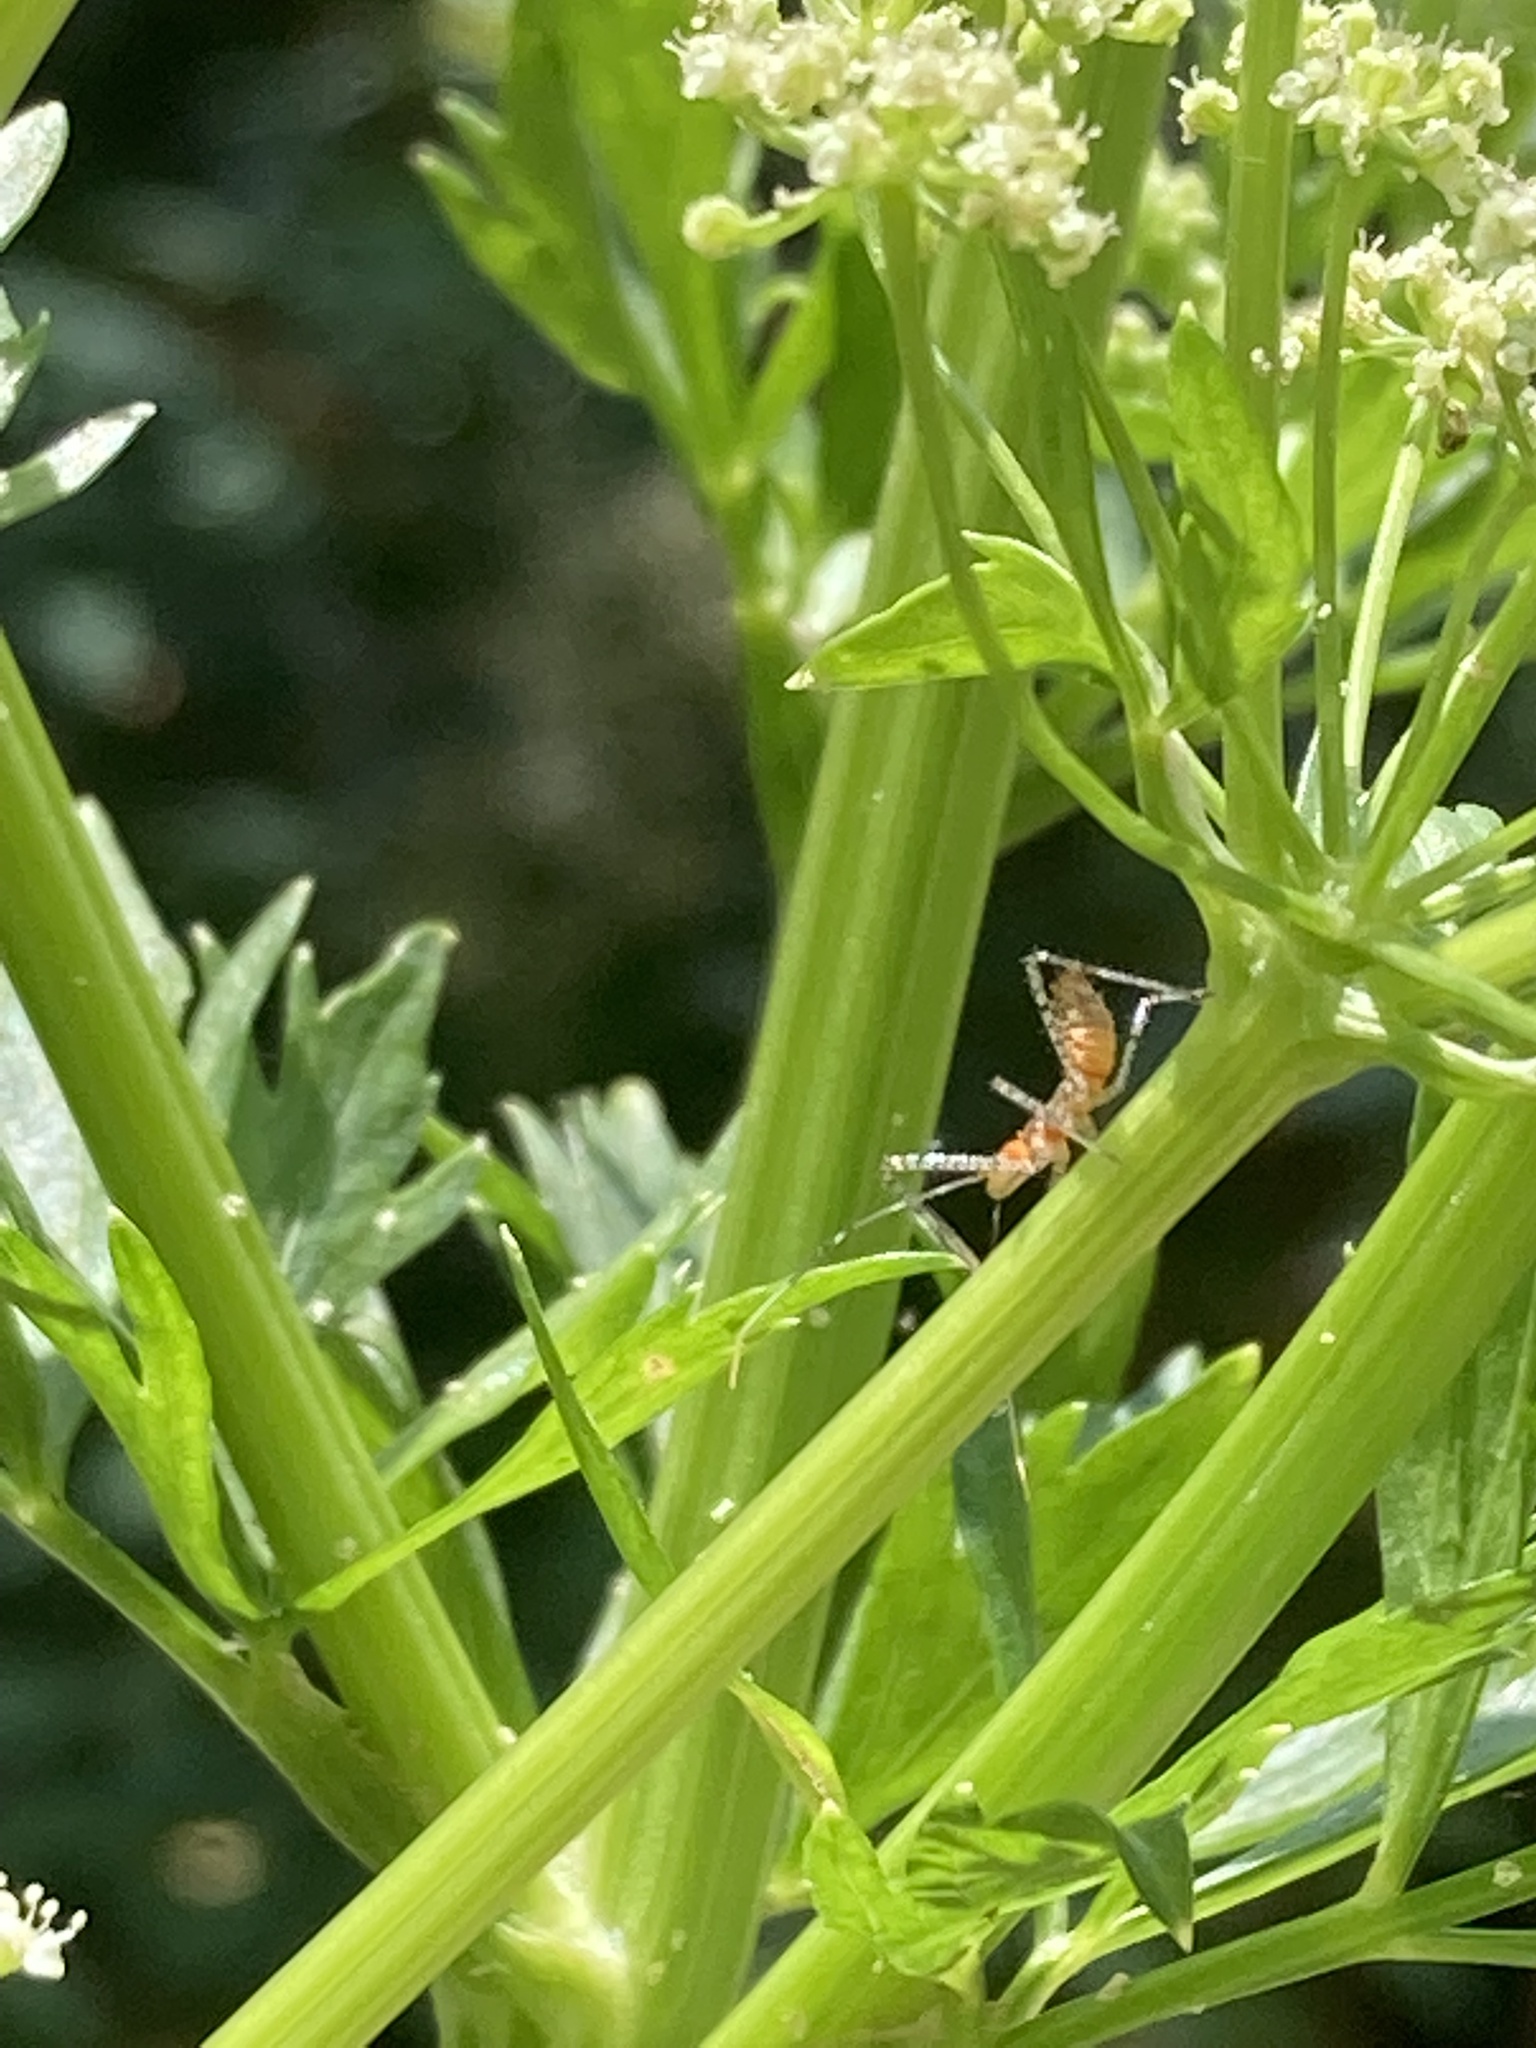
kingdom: Animalia
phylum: Arthropoda
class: Insecta
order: Hemiptera
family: Reduviidae
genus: Zelus
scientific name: Zelus renardii
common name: Assassin bug
